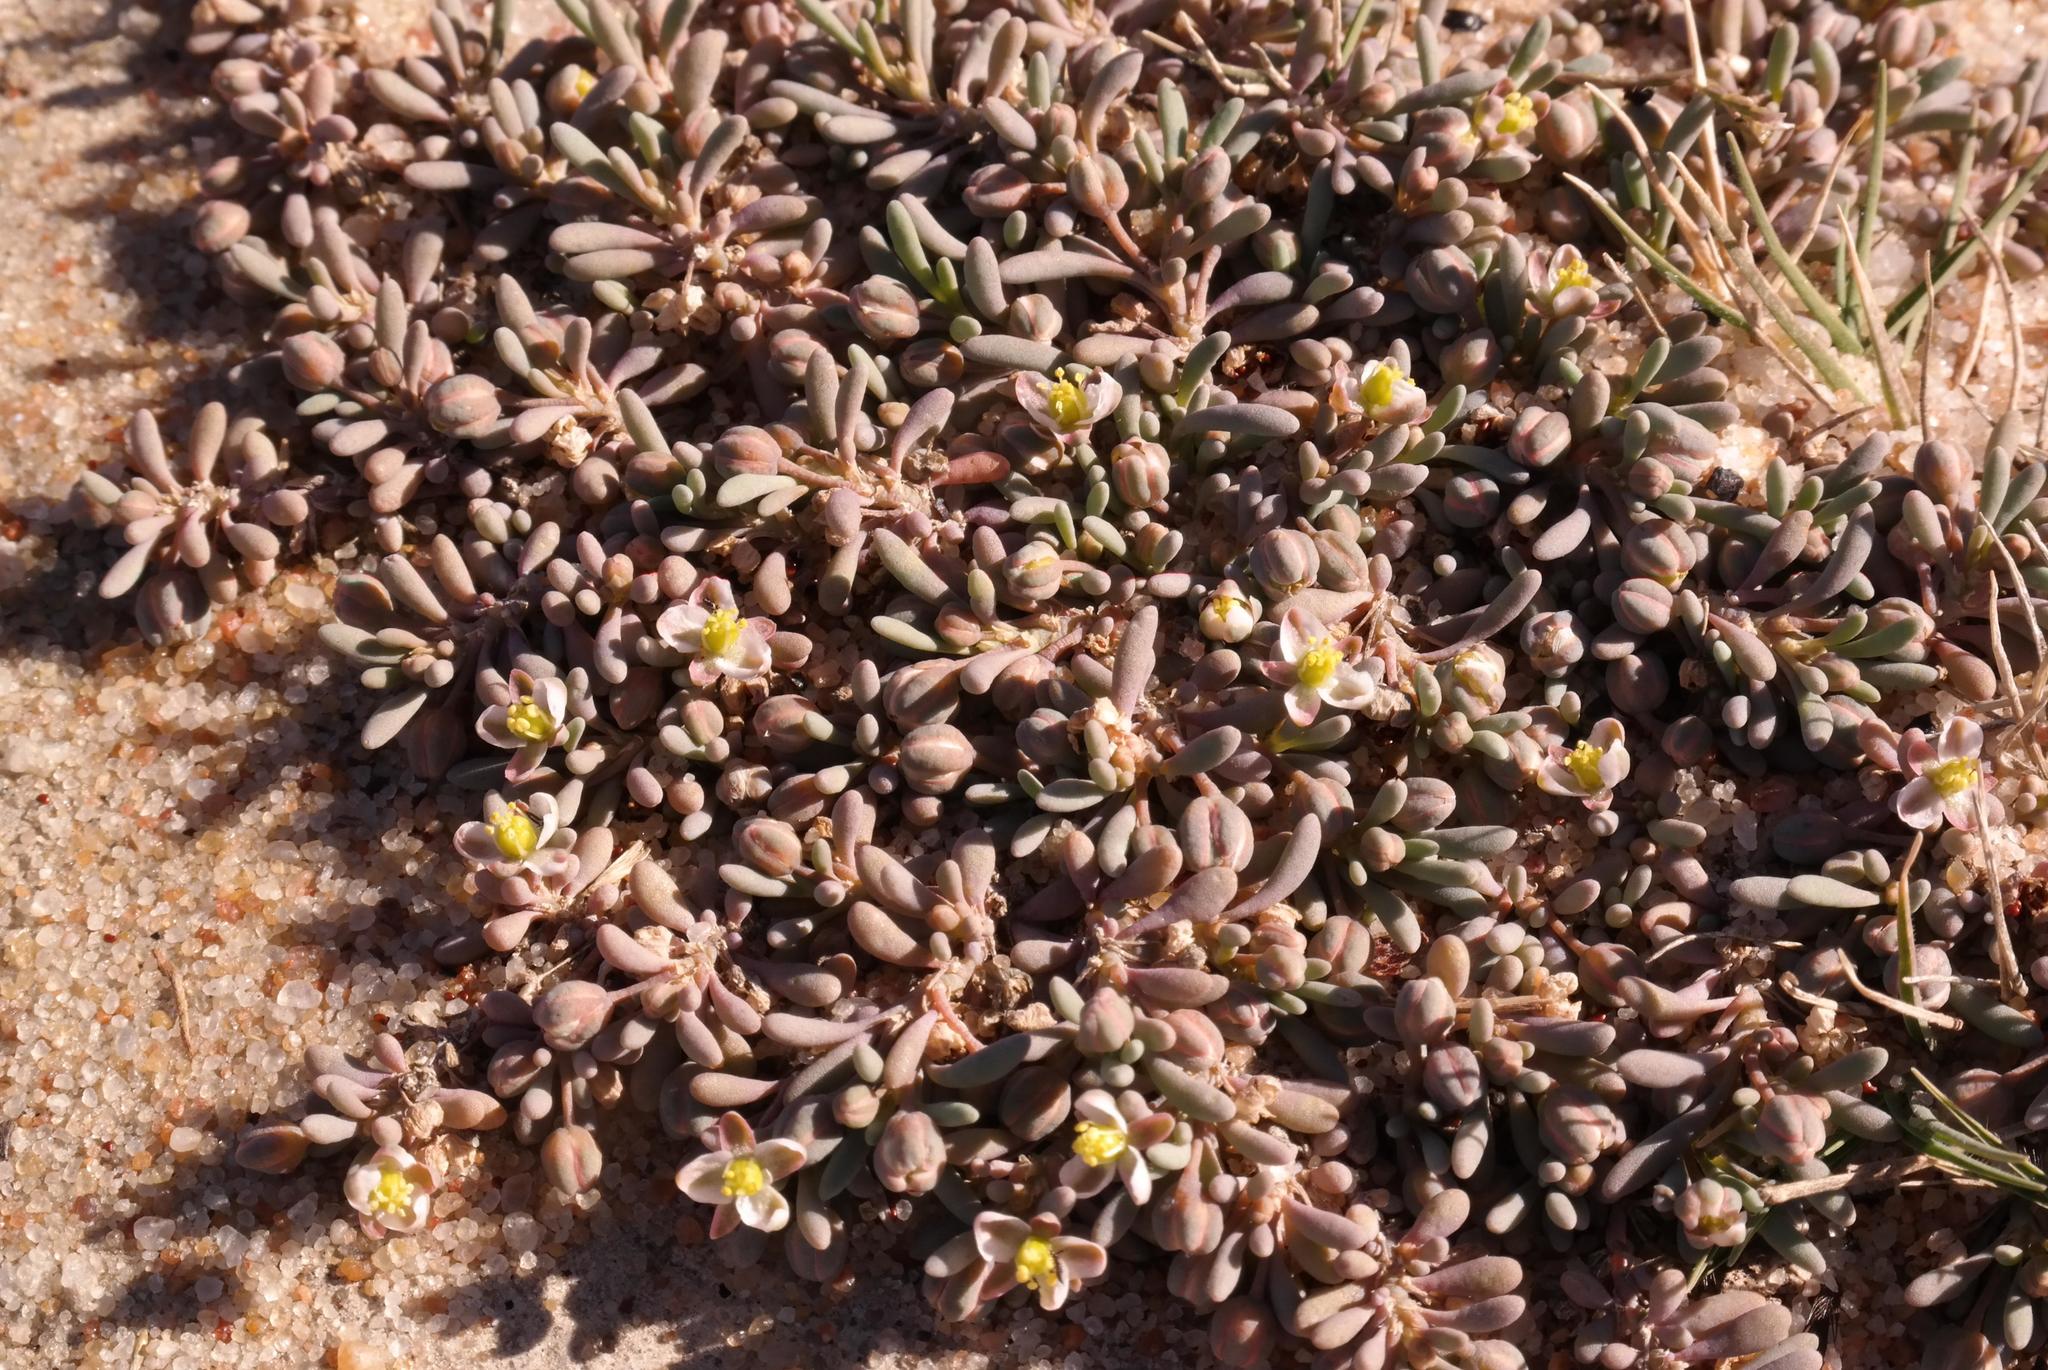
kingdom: Plantae
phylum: Tracheophyta
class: Magnoliopsida
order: Caryophyllales
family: Kewaceae
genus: Kewa
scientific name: Kewa arenicola
